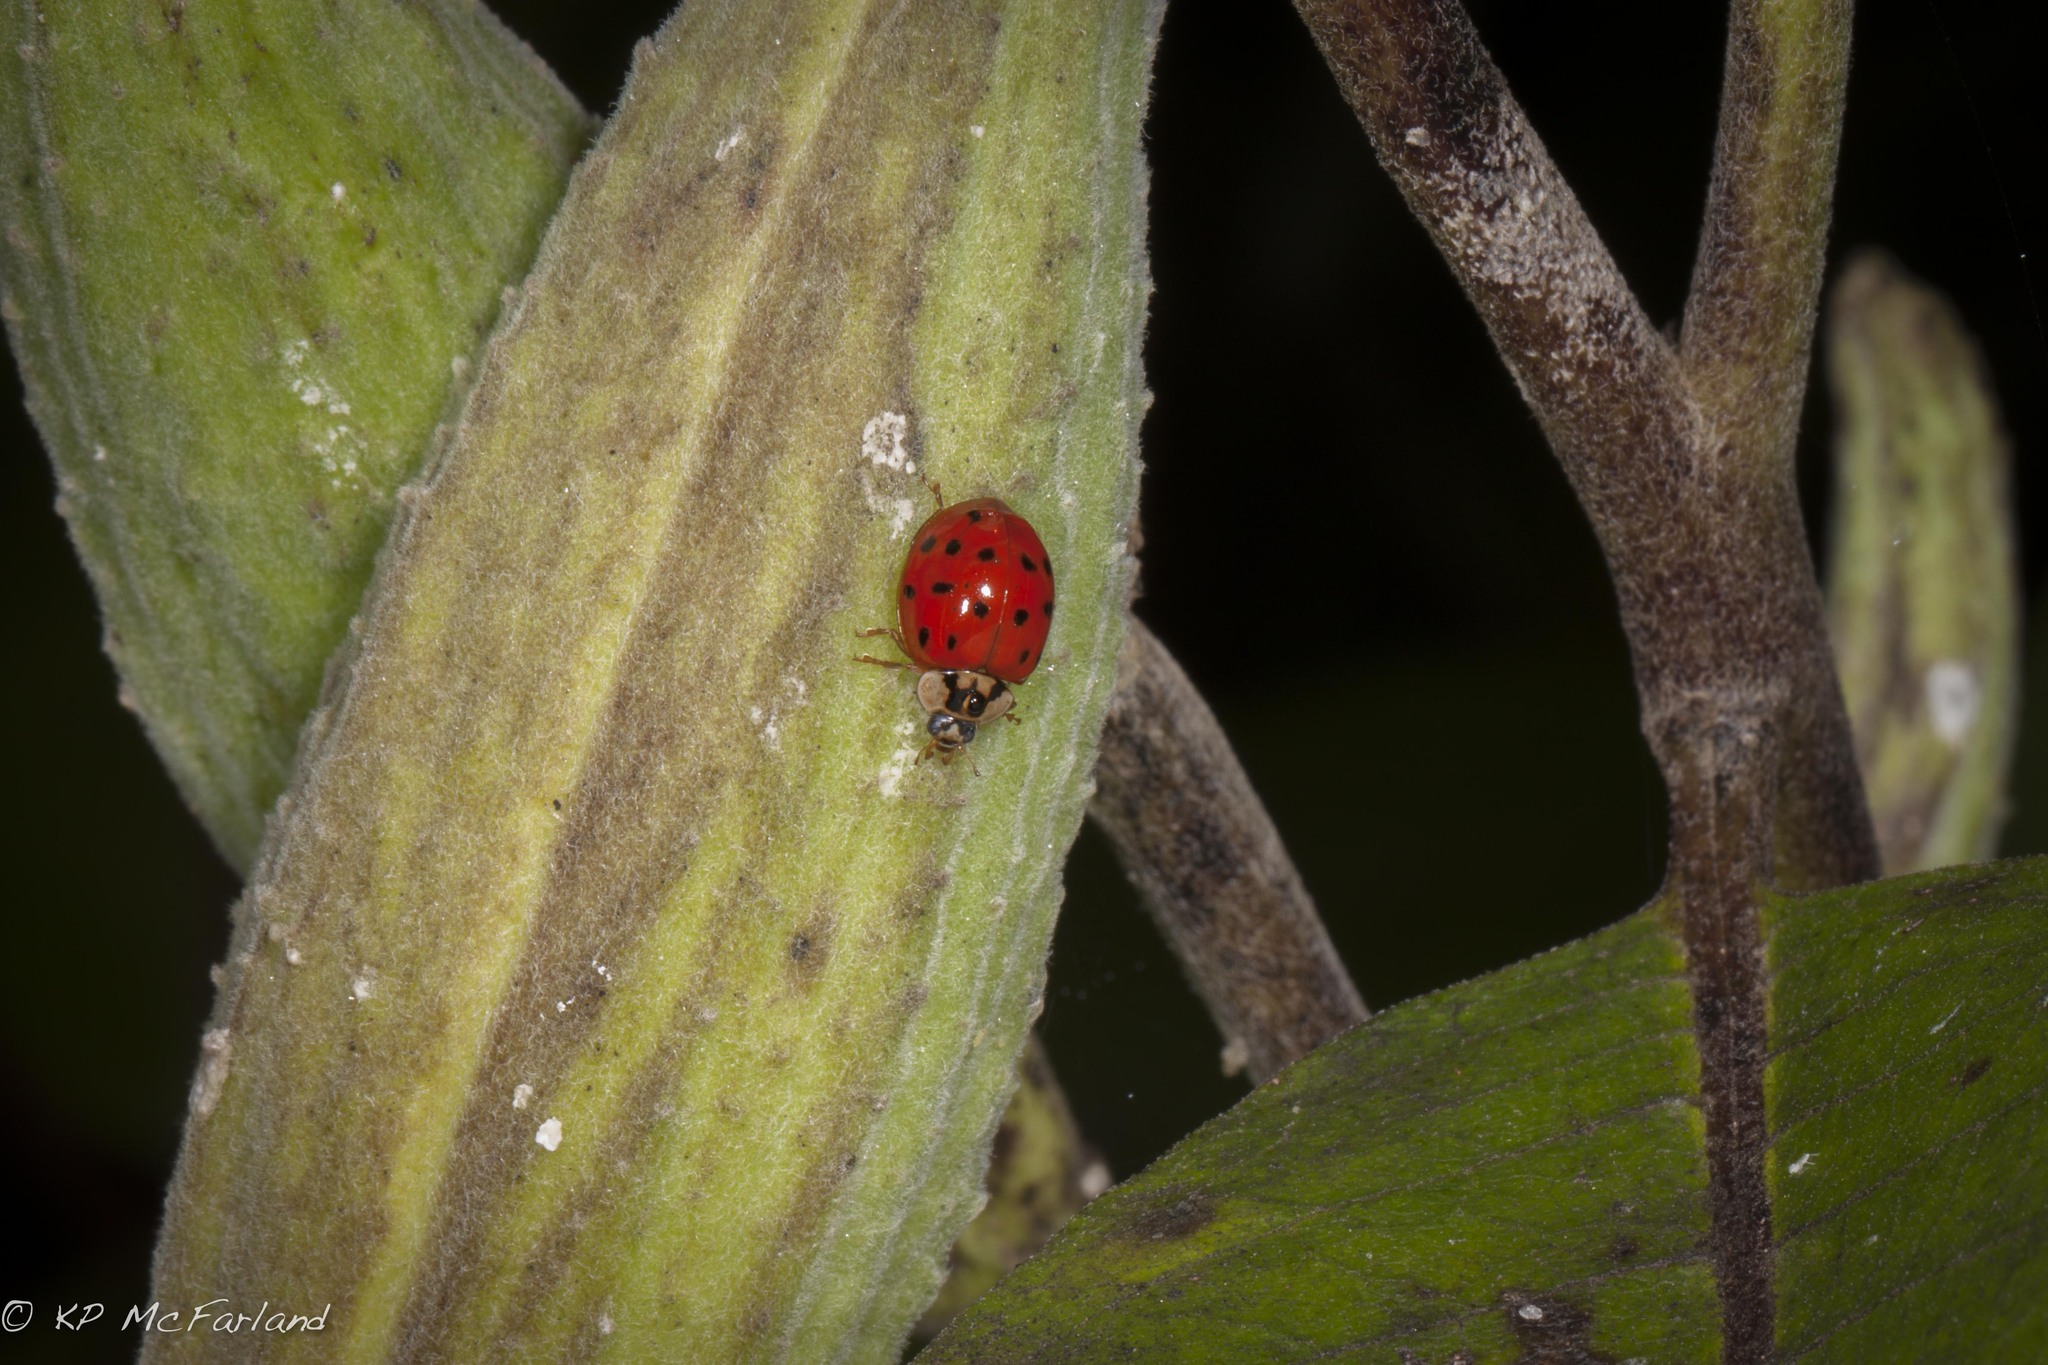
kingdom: Animalia
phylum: Arthropoda
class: Insecta
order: Coleoptera
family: Coccinellidae
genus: Harmonia
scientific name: Harmonia axyridis
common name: Harlequin ladybird
